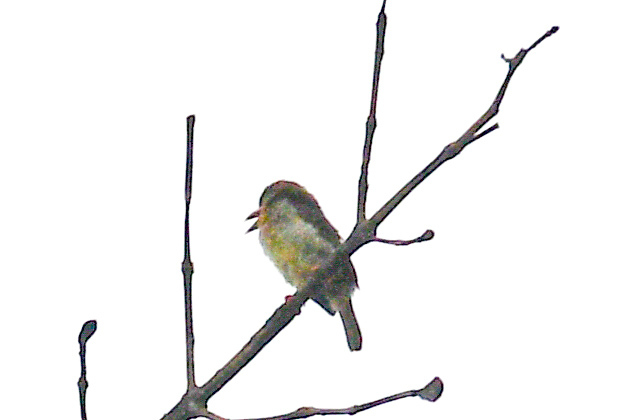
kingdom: Animalia
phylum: Chordata
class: Aves
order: Piciformes
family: Megalaimidae
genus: Caloramphus
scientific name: Caloramphus fuliginosus
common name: Brown barbet
